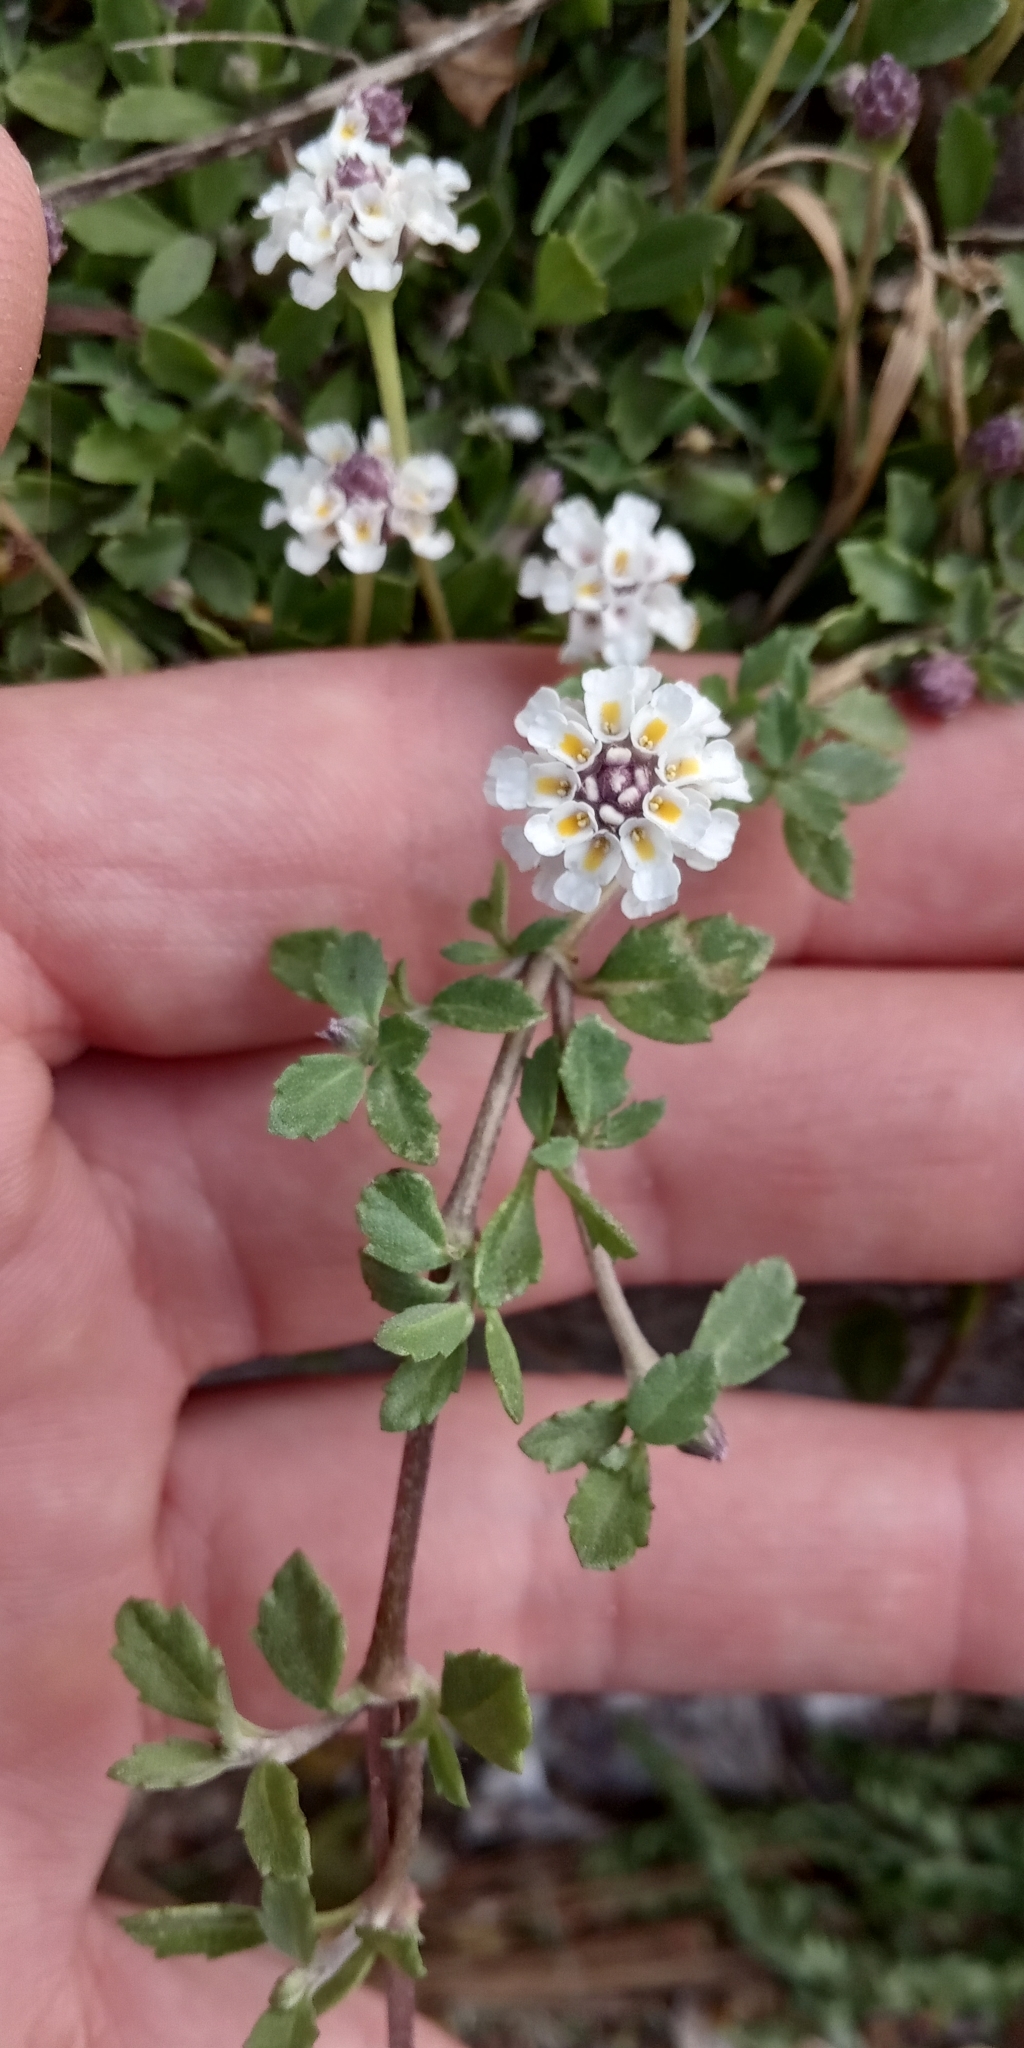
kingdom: Plantae
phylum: Tracheophyta
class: Magnoliopsida
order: Lamiales
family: Verbenaceae
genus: Phyla
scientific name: Phyla nodiflora
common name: Frogfruit
